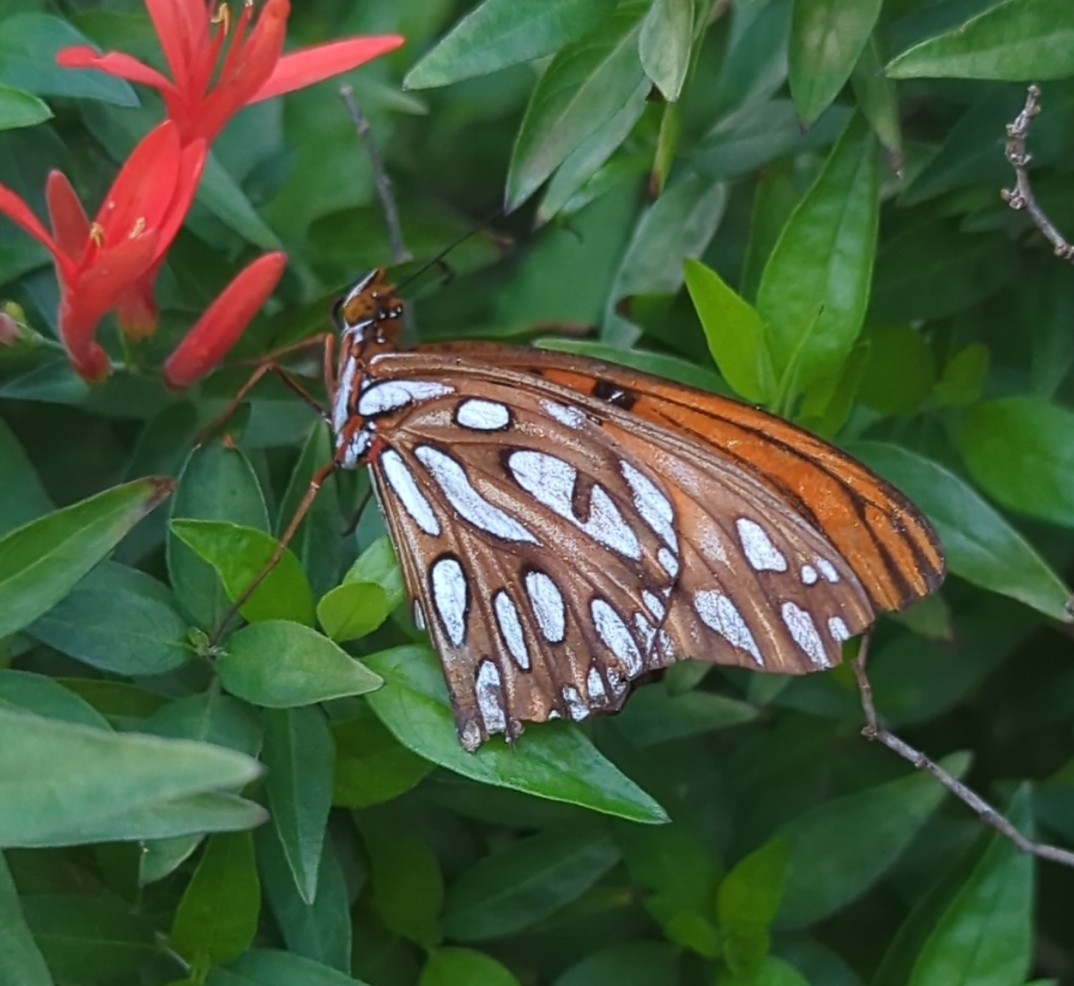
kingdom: Animalia
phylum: Arthropoda
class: Insecta
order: Lepidoptera
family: Nymphalidae
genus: Dione
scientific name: Dione vanillae
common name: Gulf fritillary
